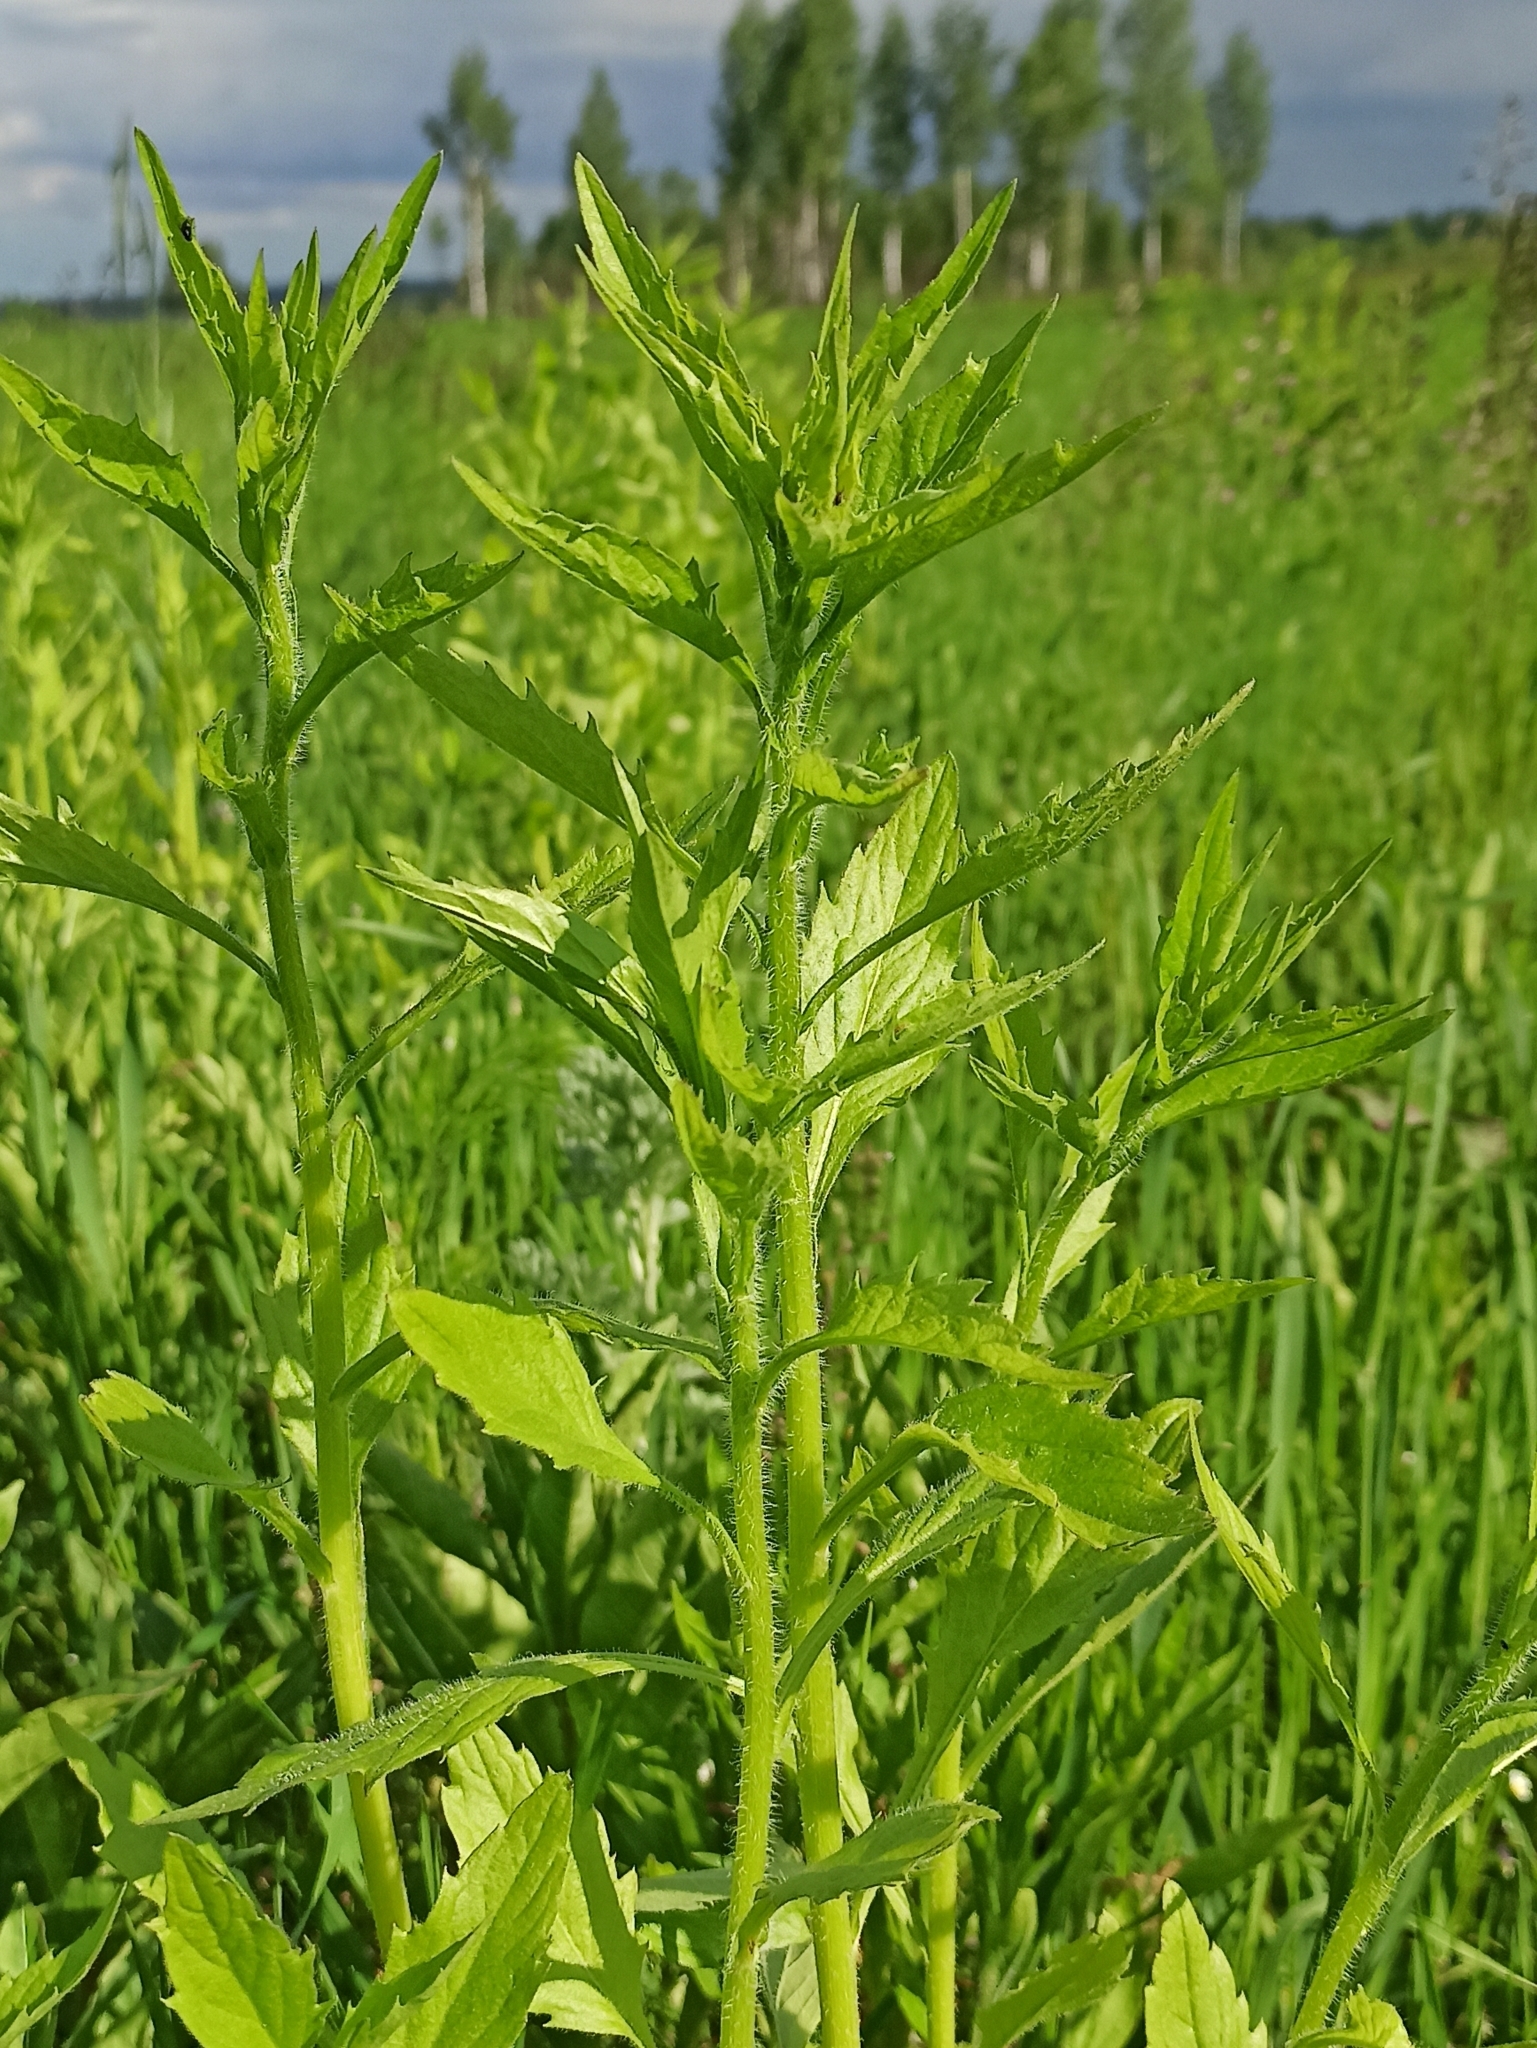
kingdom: Plantae
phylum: Tracheophyta
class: Magnoliopsida
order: Asterales
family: Asteraceae
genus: Erigeron
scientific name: Erigeron annuus
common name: Tall fleabane
